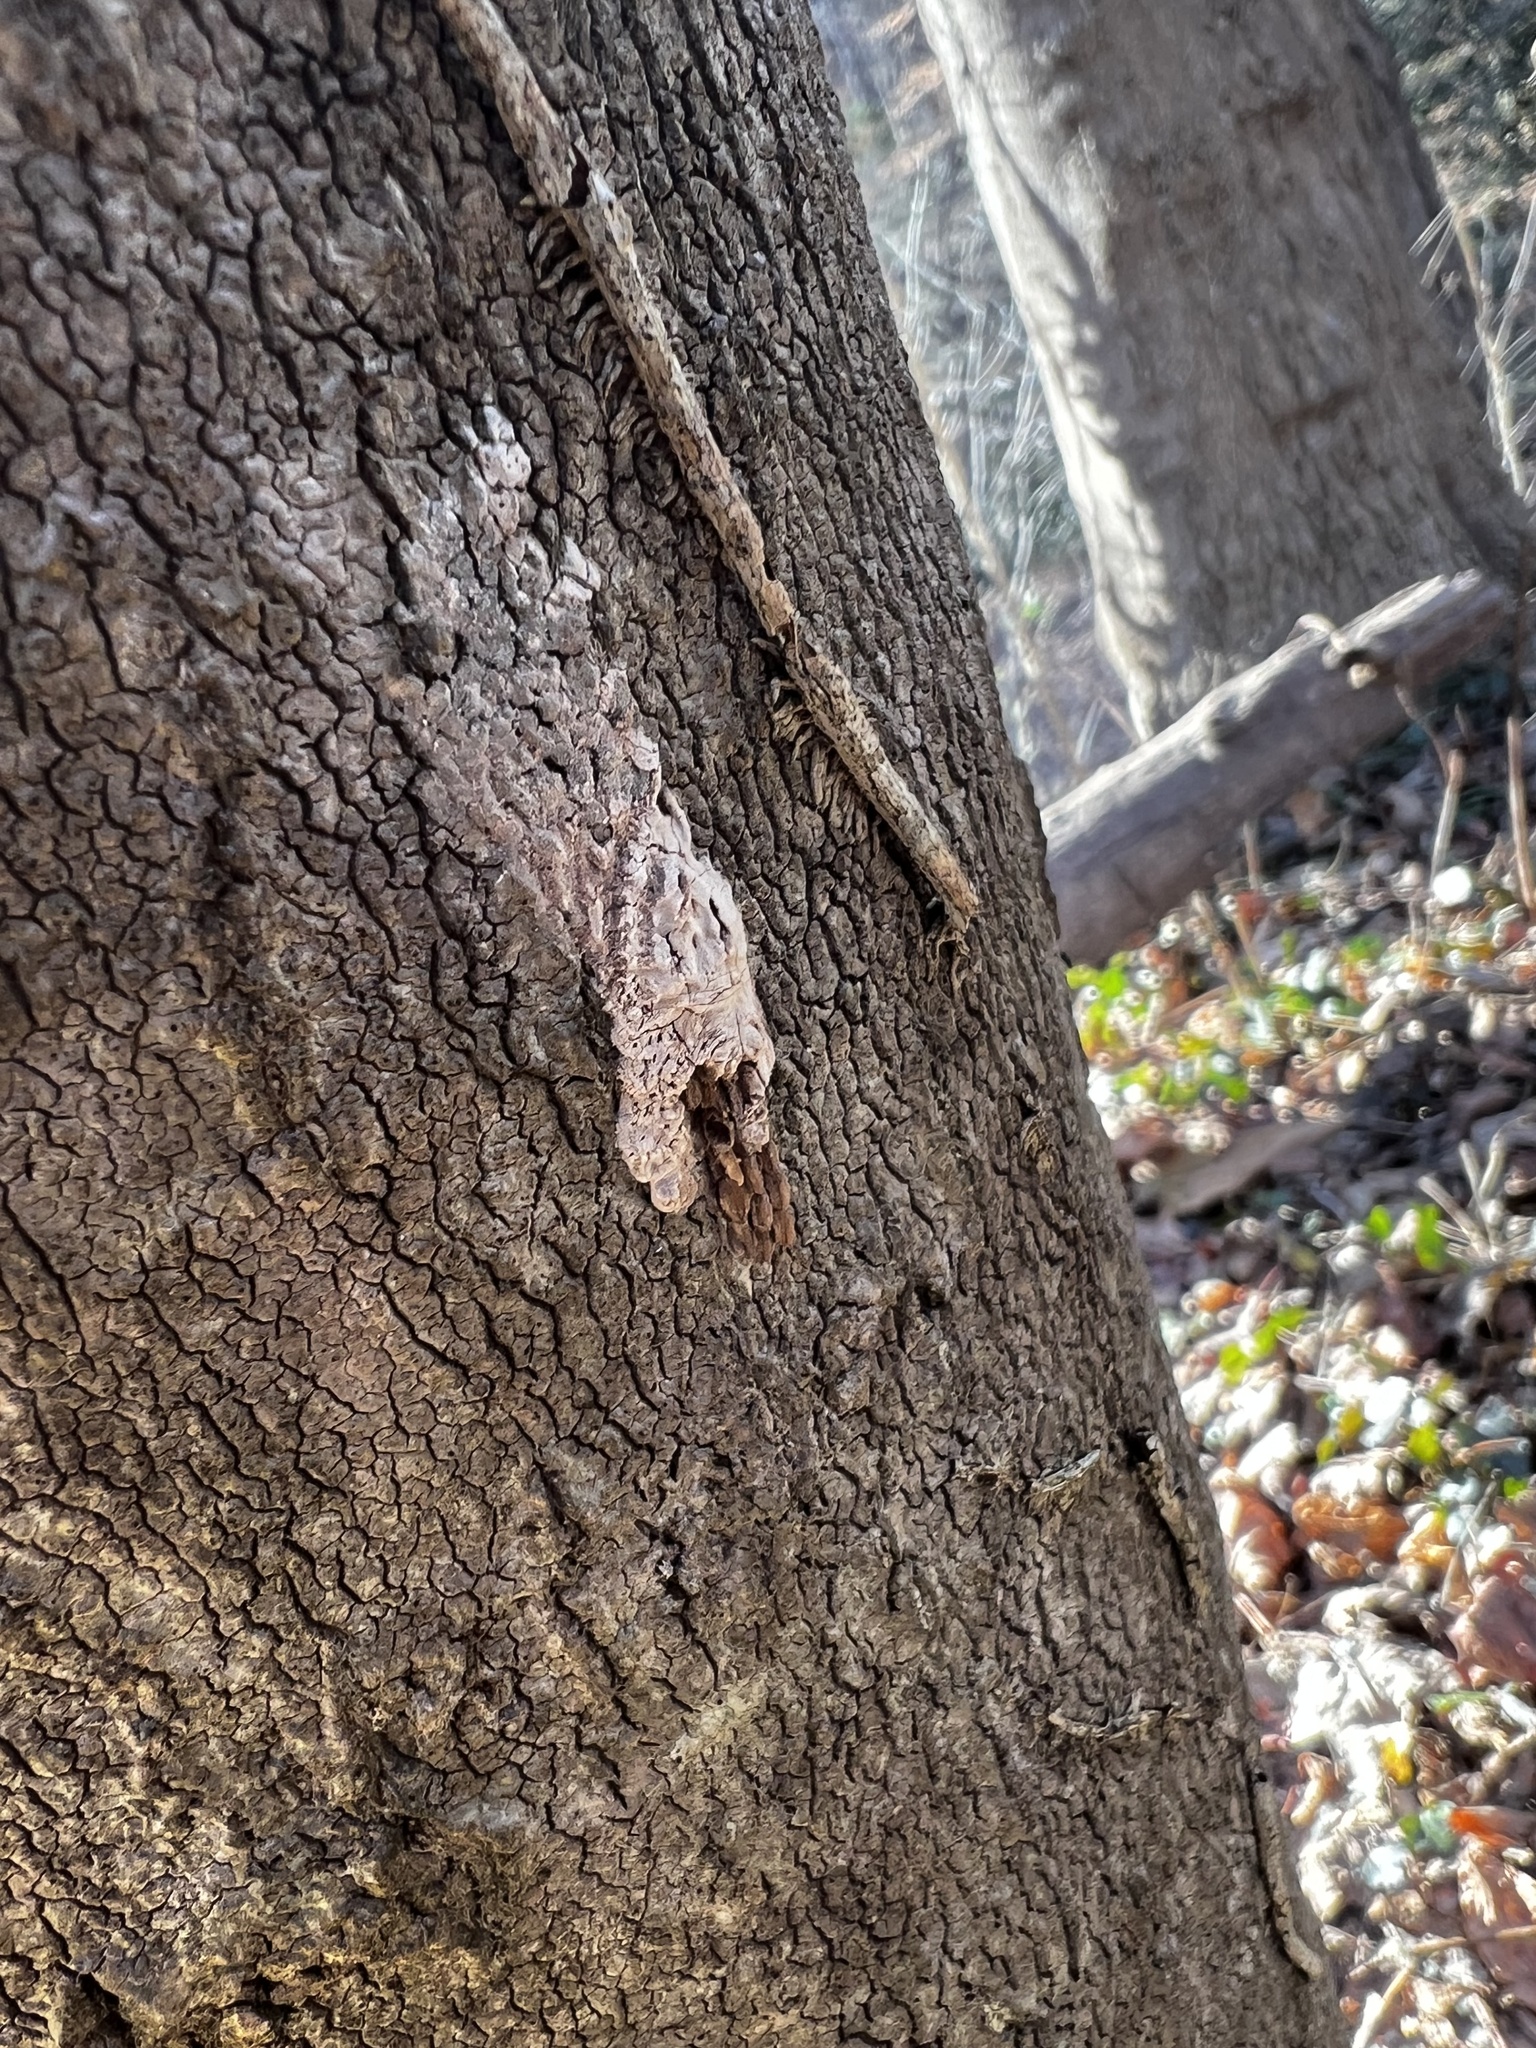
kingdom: Animalia
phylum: Arthropoda
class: Insecta
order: Hemiptera
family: Fulgoridae
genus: Lycorma
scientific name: Lycorma delicatula
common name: Spotted lanternfly
